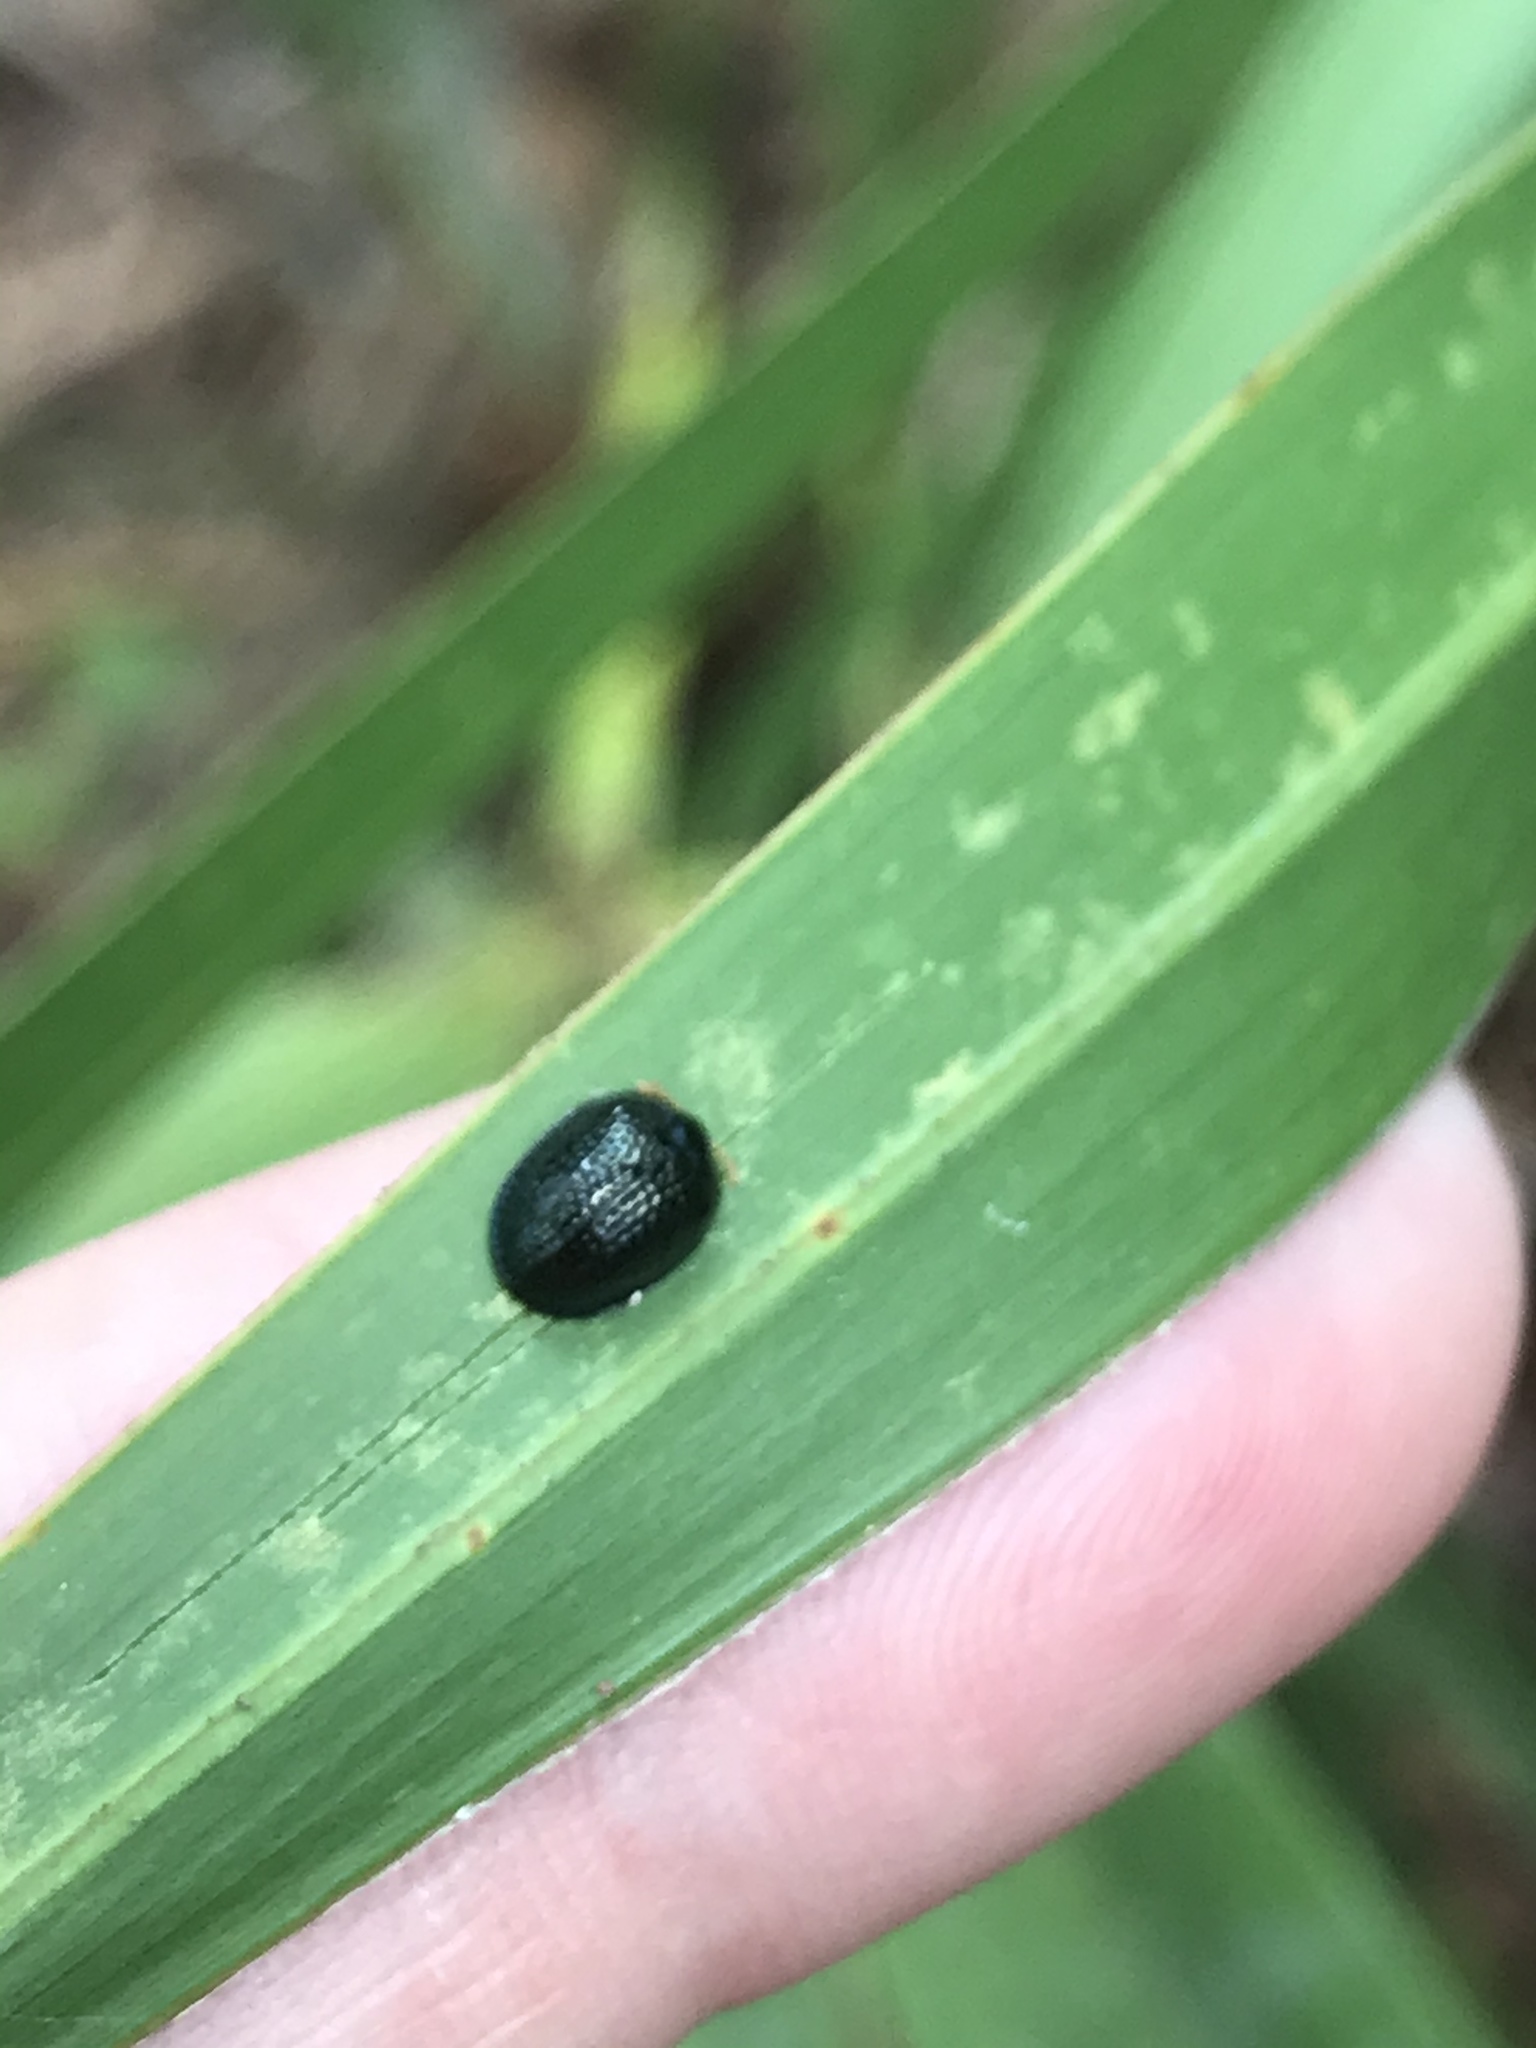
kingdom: Animalia
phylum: Arthropoda
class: Insecta
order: Coleoptera
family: Chrysomelidae
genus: Hemisphaerota
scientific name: Hemisphaerota cyanea
